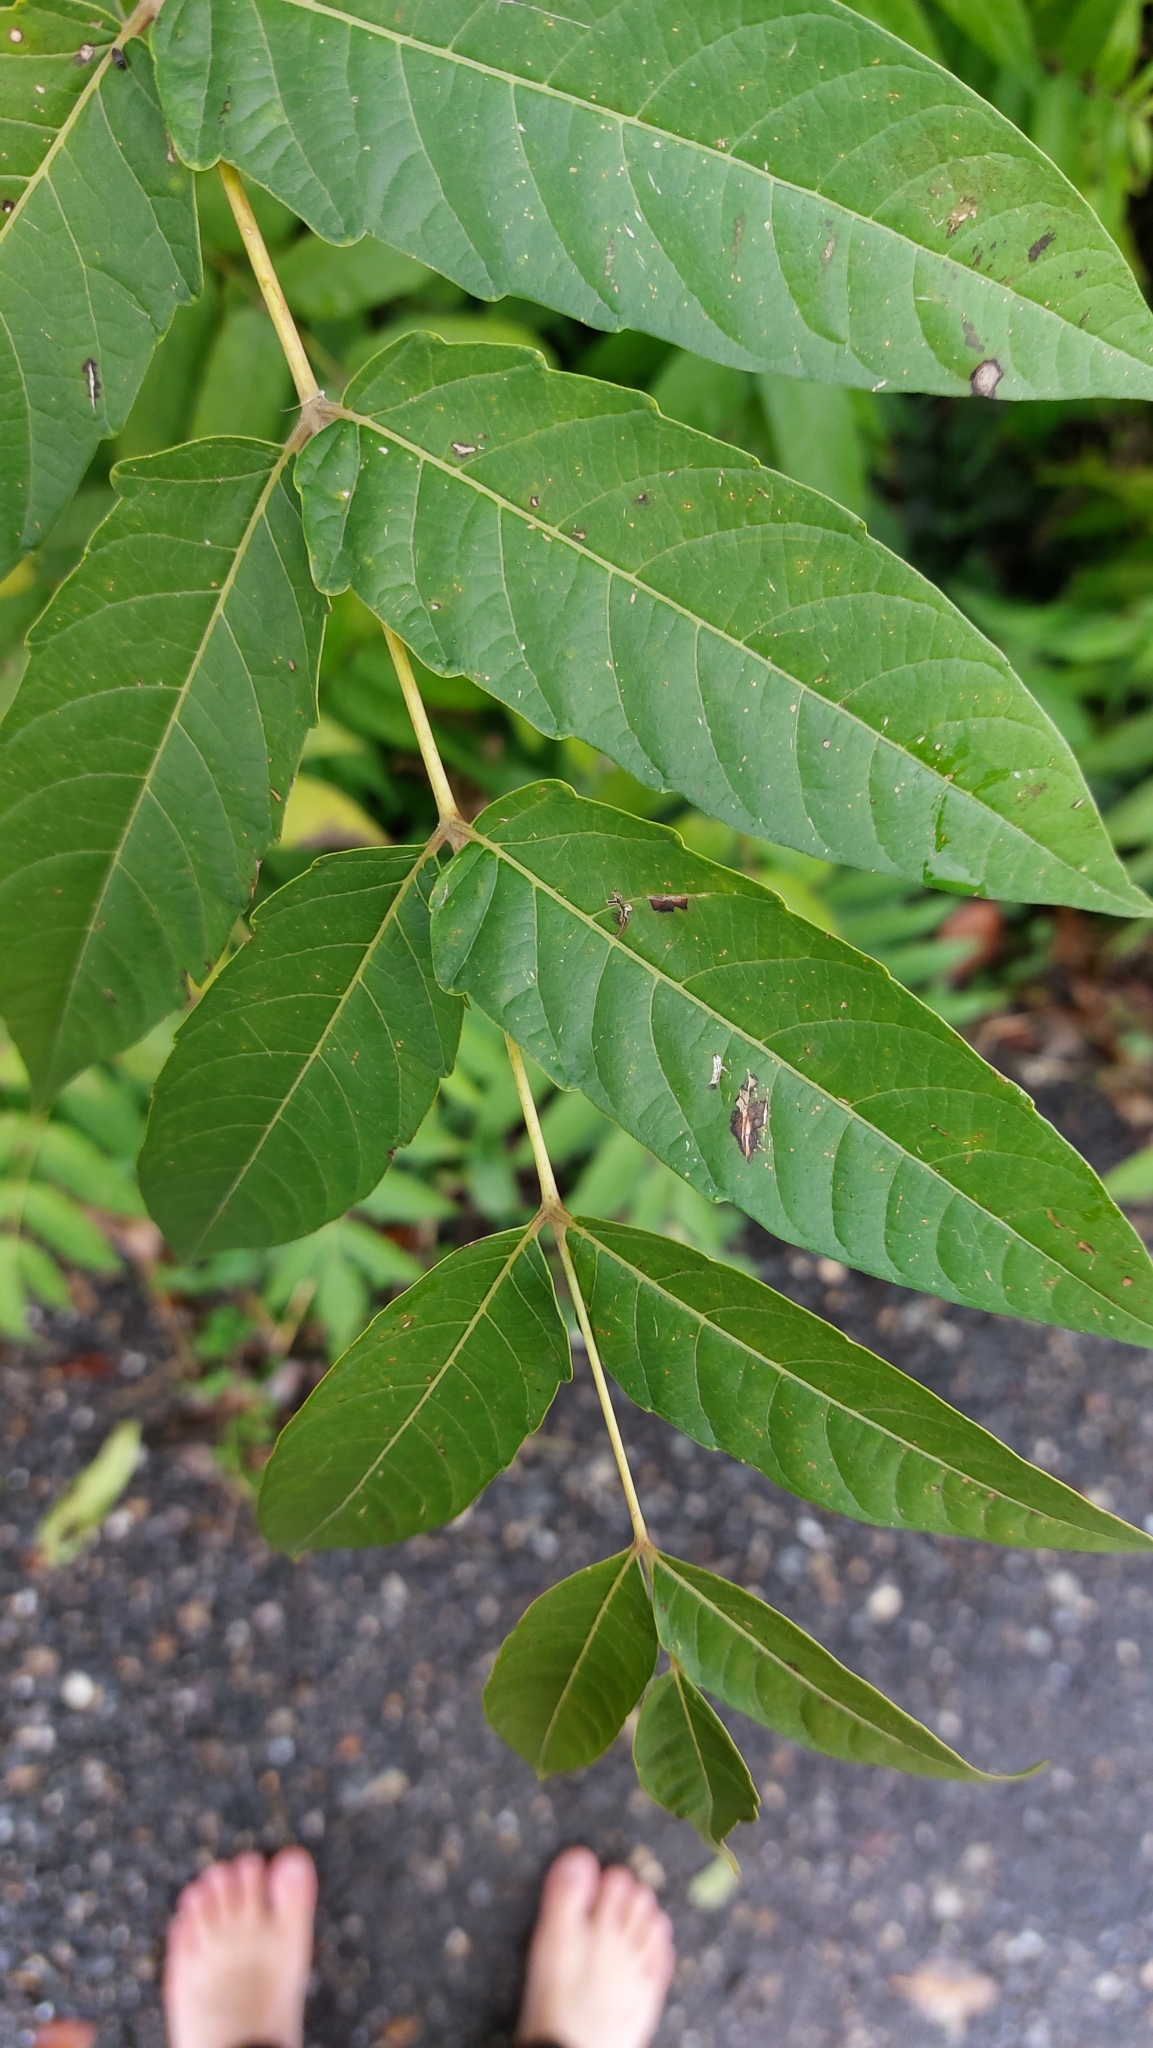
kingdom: Plantae
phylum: Tracheophyta
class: Magnoliopsida
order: Sapindales
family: Simaroubaceae
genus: Ailanthus
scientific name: Ailanthus altissima
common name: Tree-of-heaven
